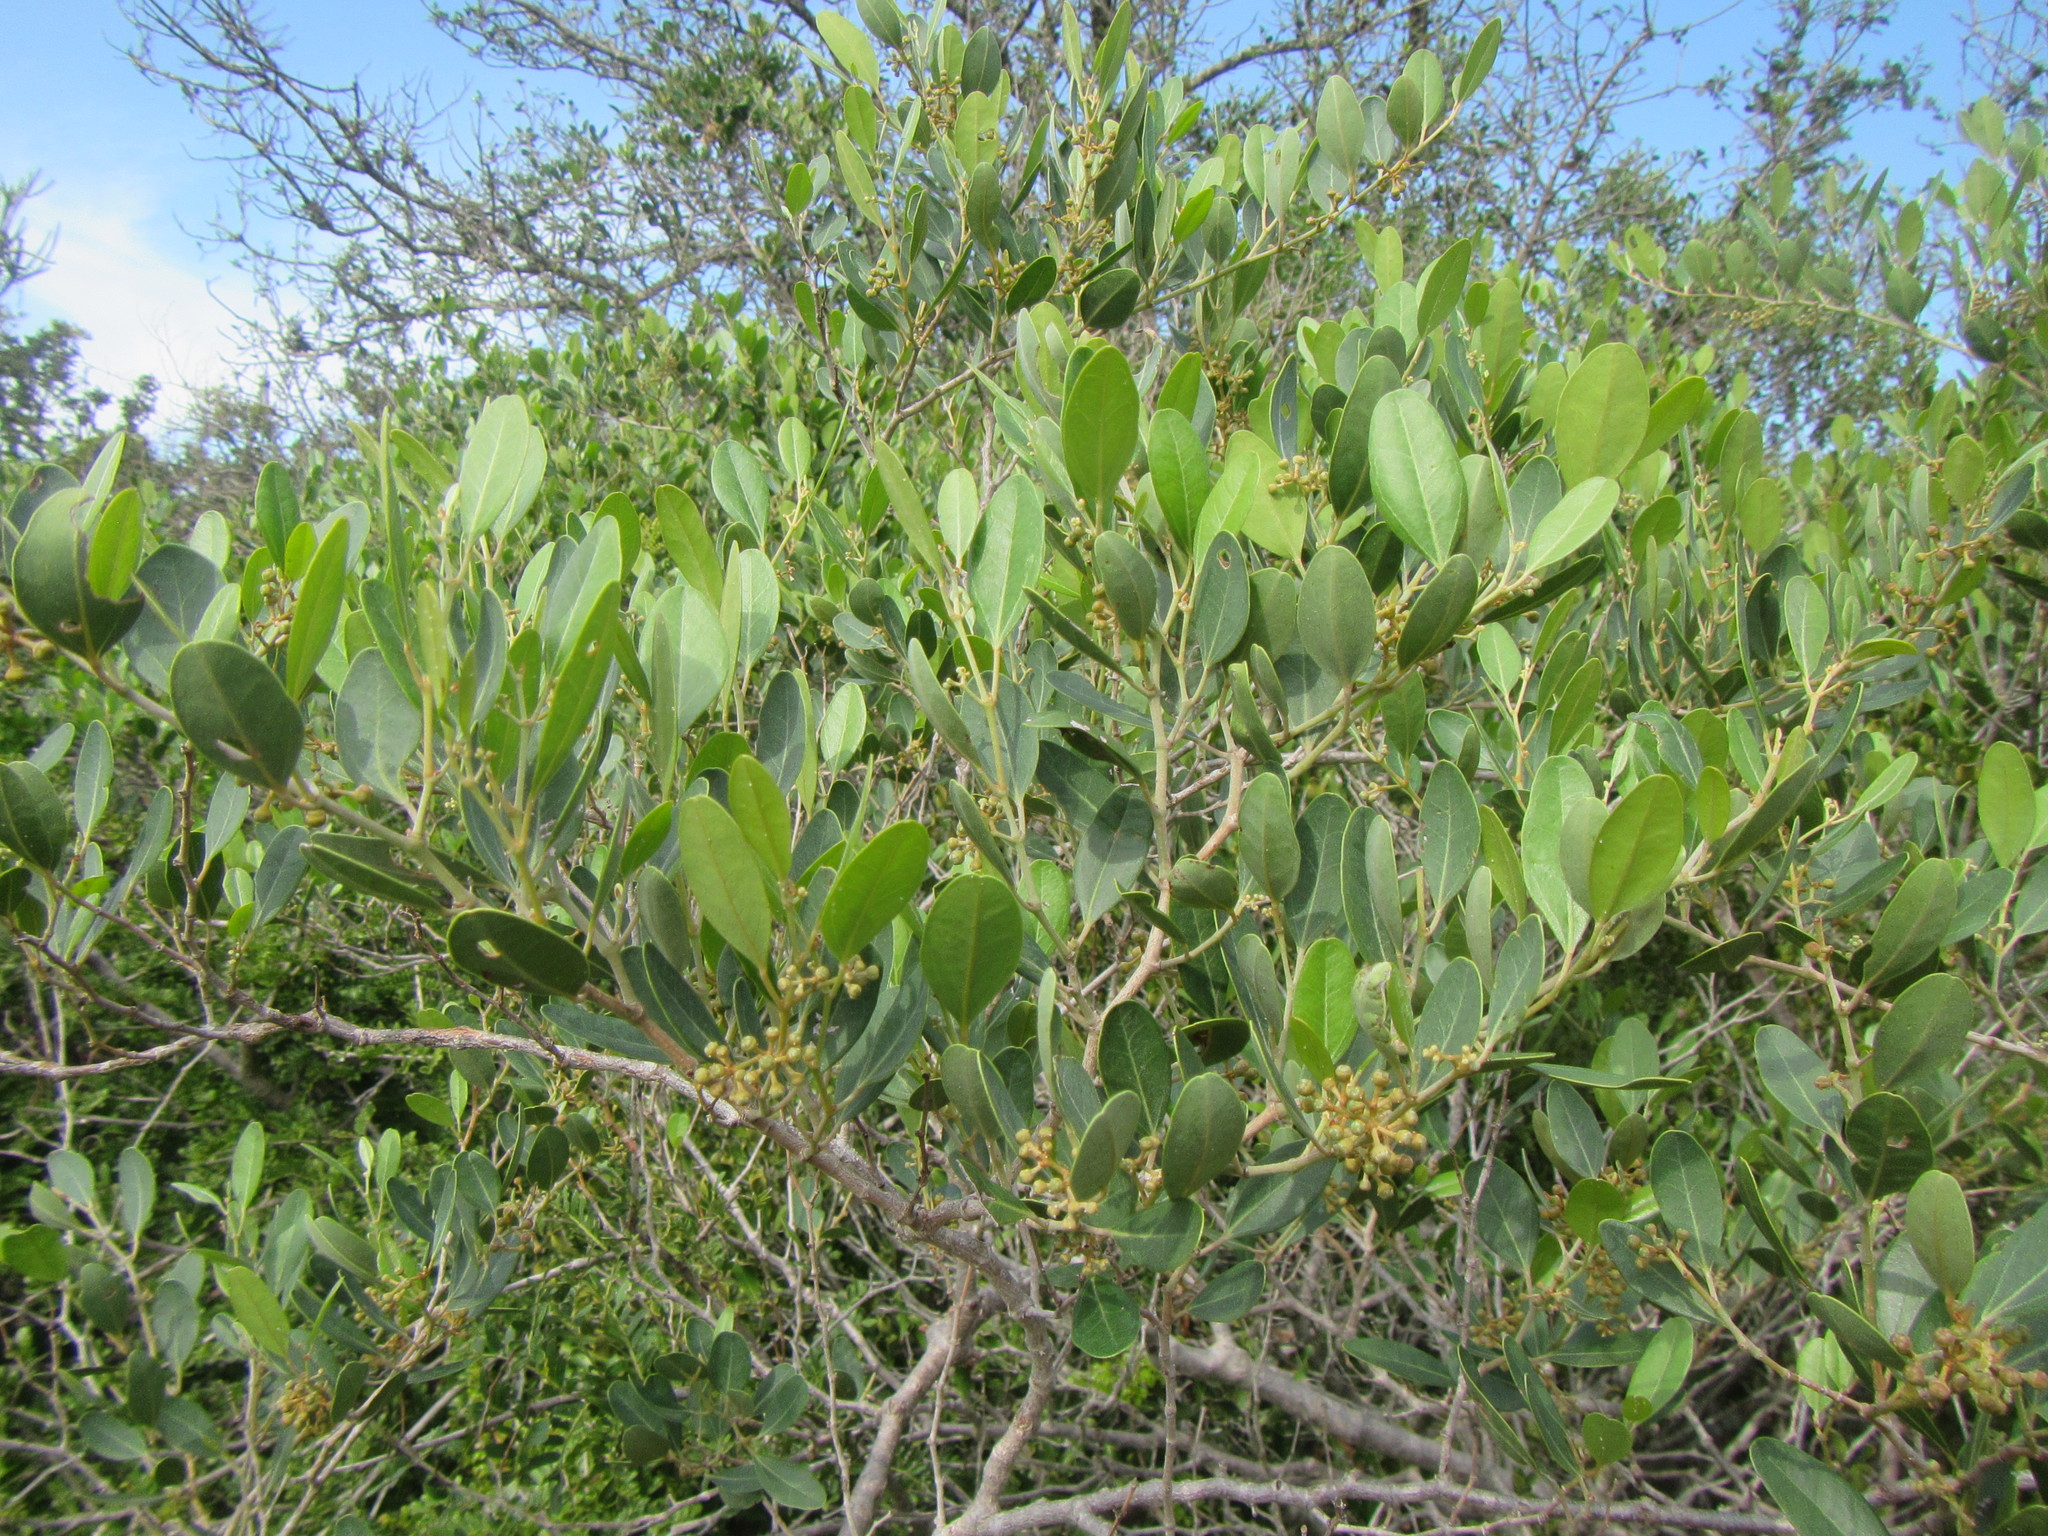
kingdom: Plantae
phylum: Tracheophyta
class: Magnoliopsida
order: Vitales
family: Vitaceae
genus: Rhoicissus
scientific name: Rhoicissus kougabergensis
